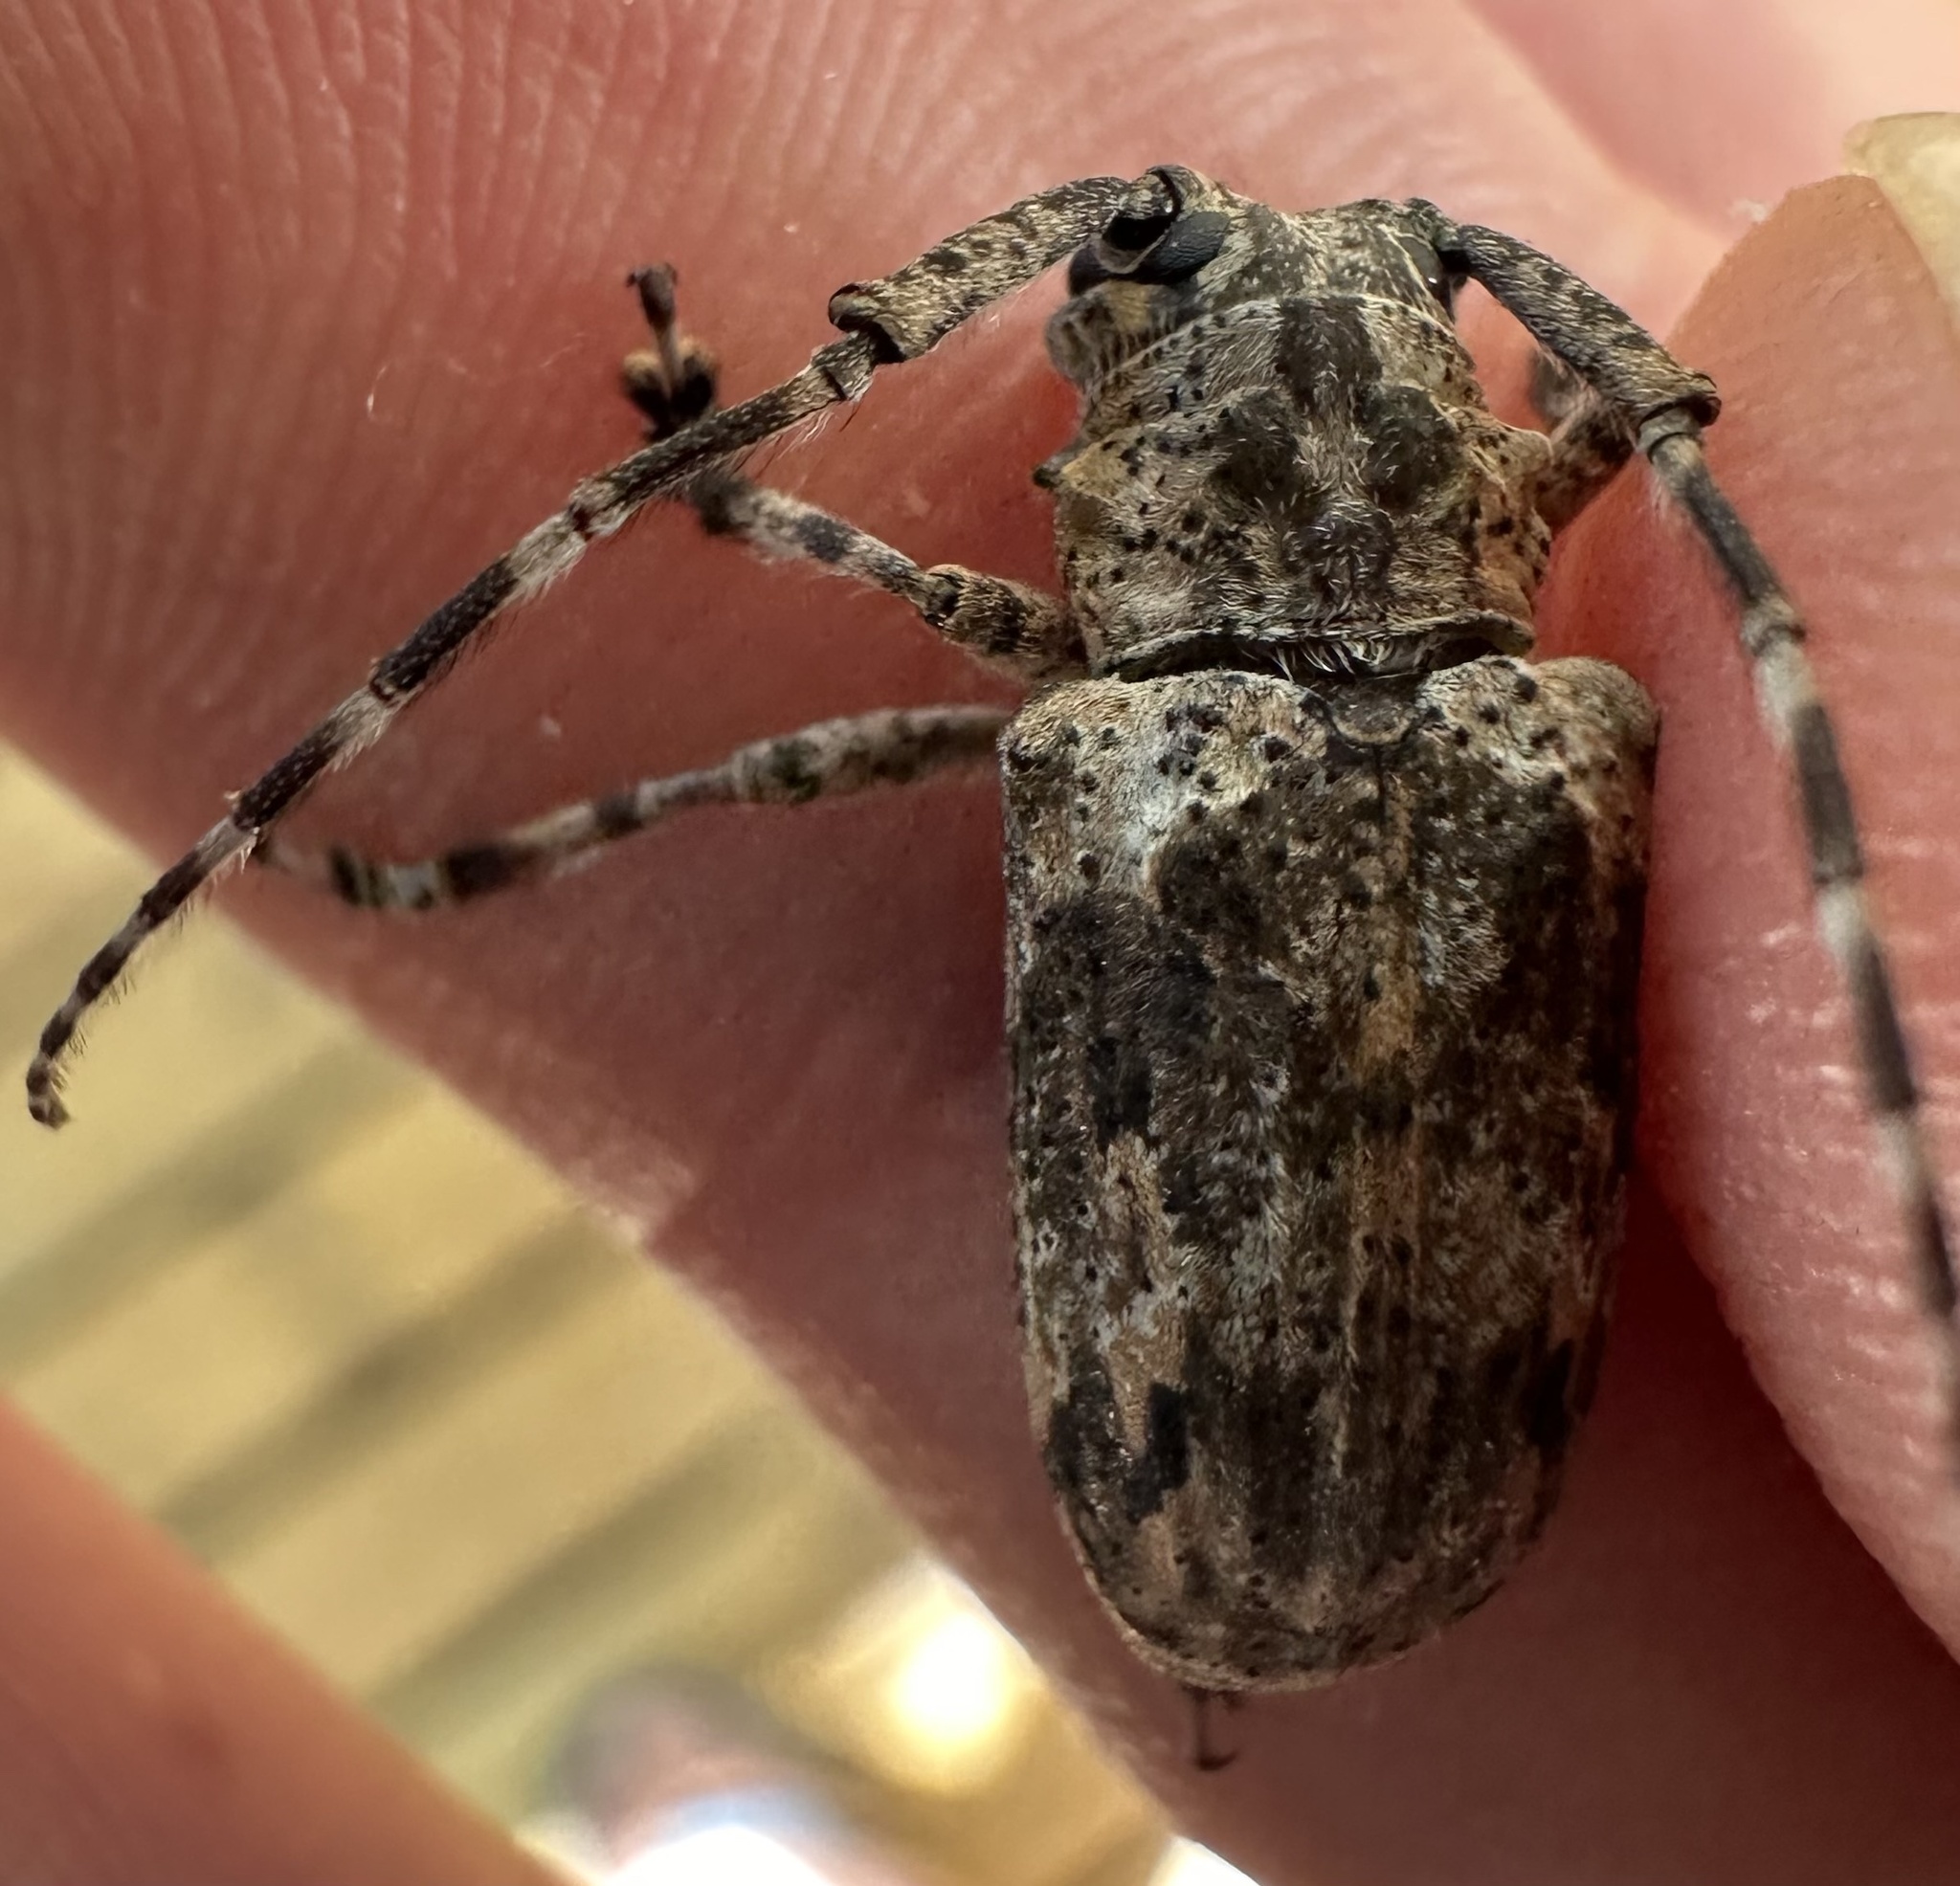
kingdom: Animalia
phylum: Arthropoda
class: Insecta
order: Coleoptera
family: Cerambycidae
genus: Coptops
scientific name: Coptops aedificator
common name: Long-horned beetle
